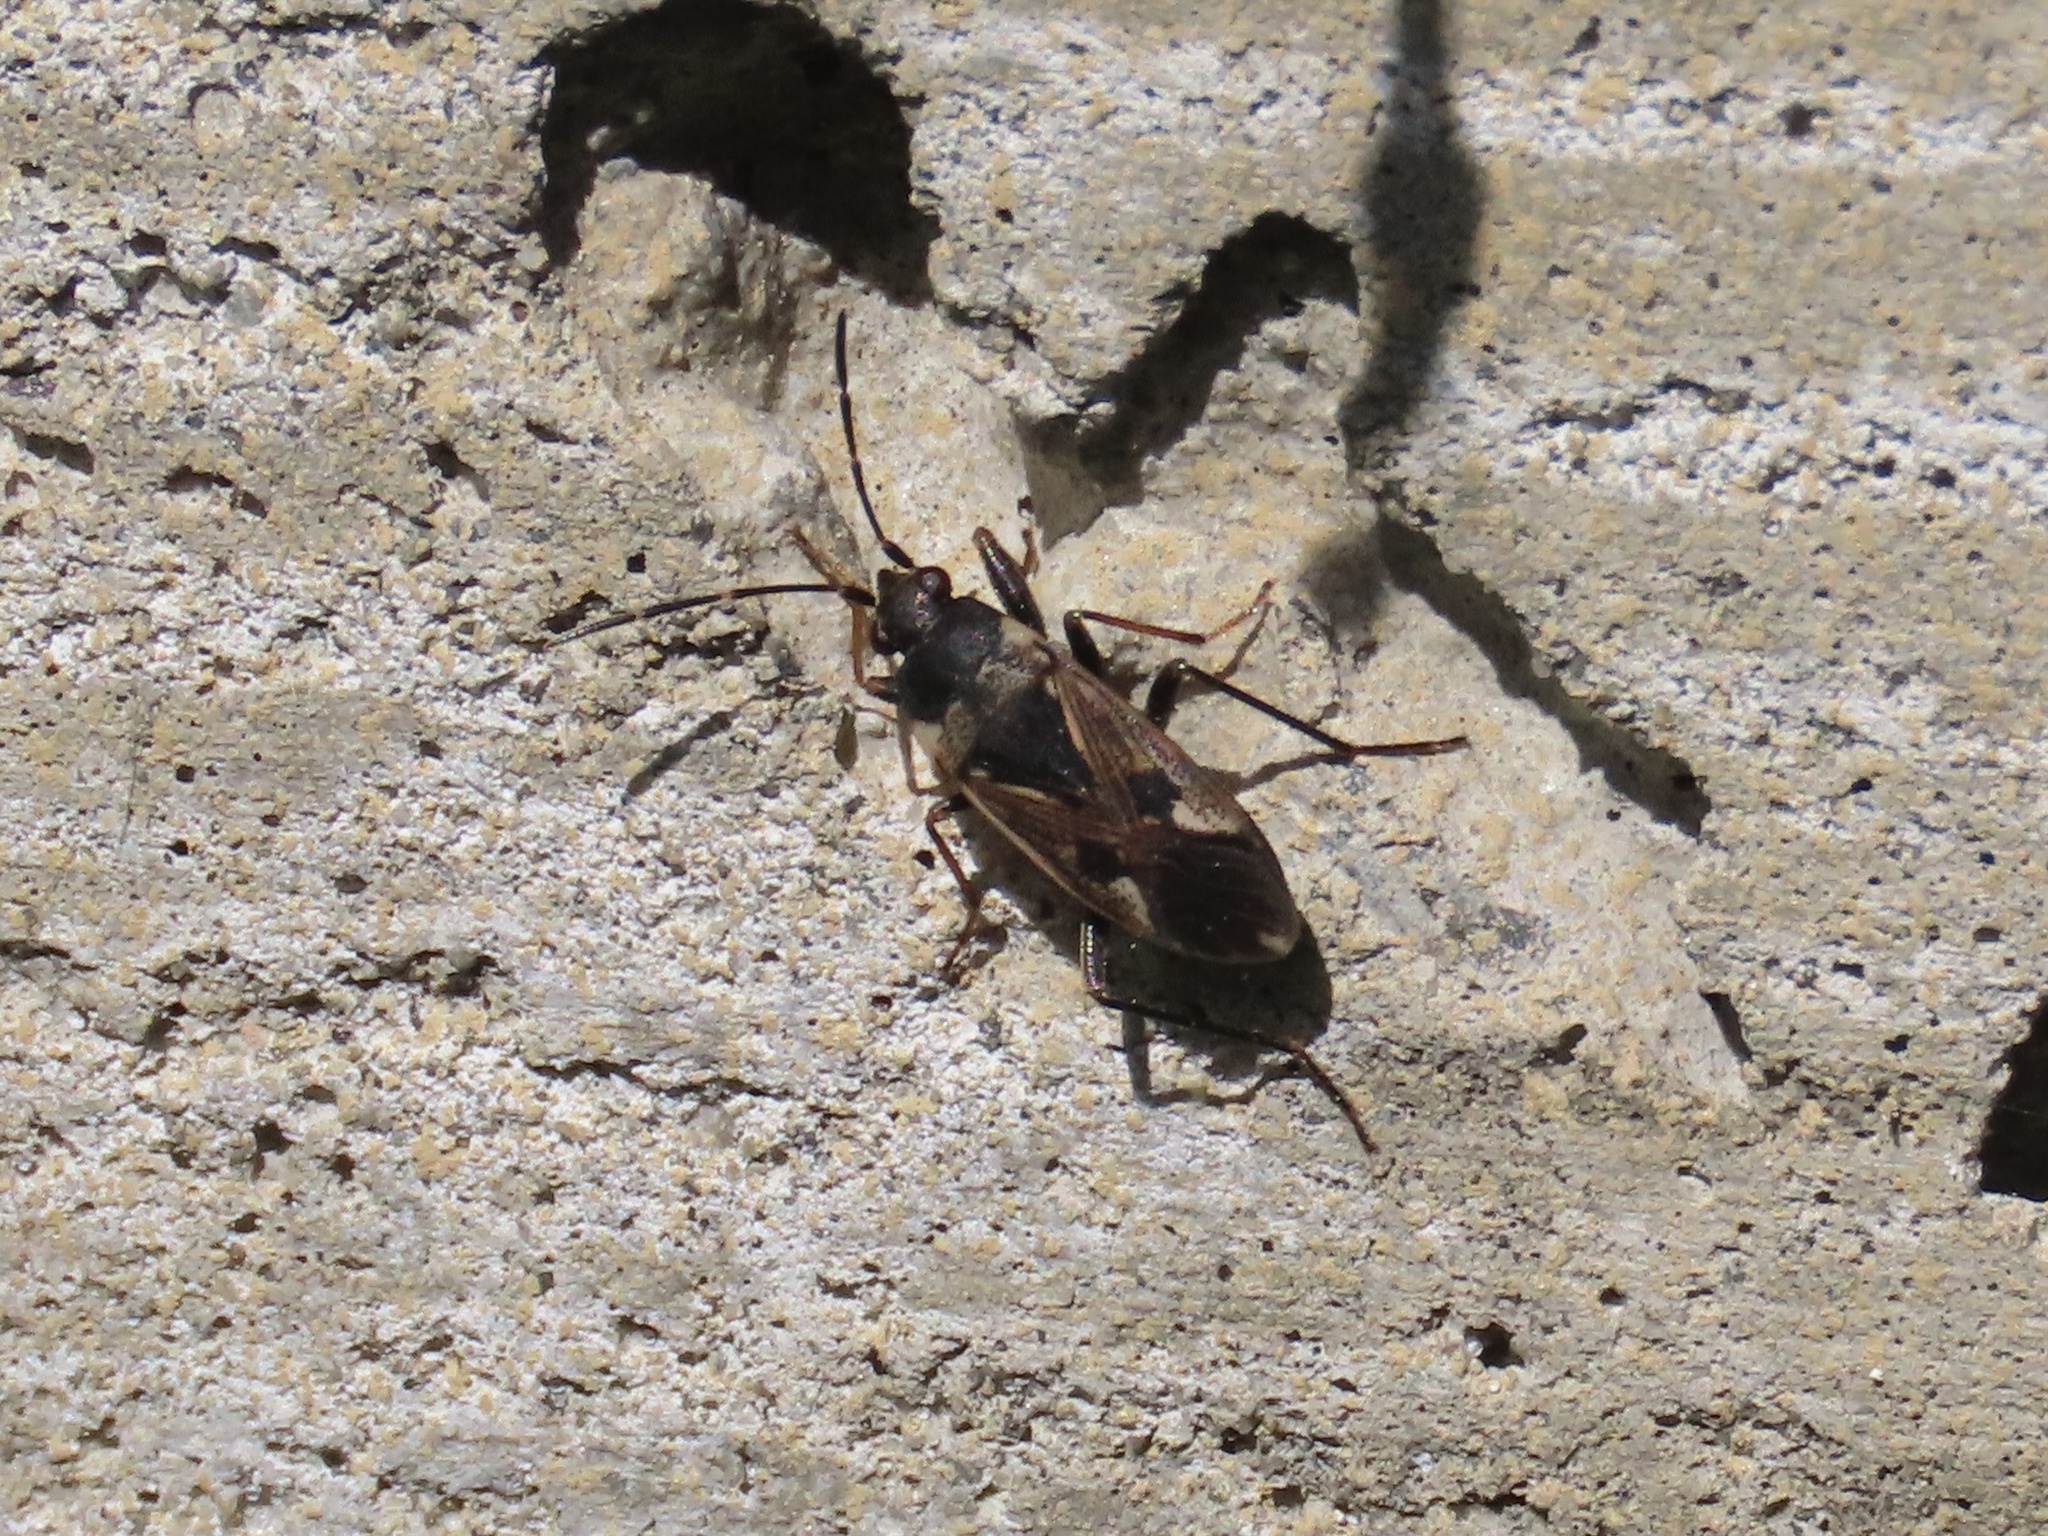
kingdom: Animalia
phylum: Arthropoda
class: Insecta
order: Hemiptera
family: Rhyparochromidae
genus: Rhyparochromus
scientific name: Rhyparochromus vulgaris
